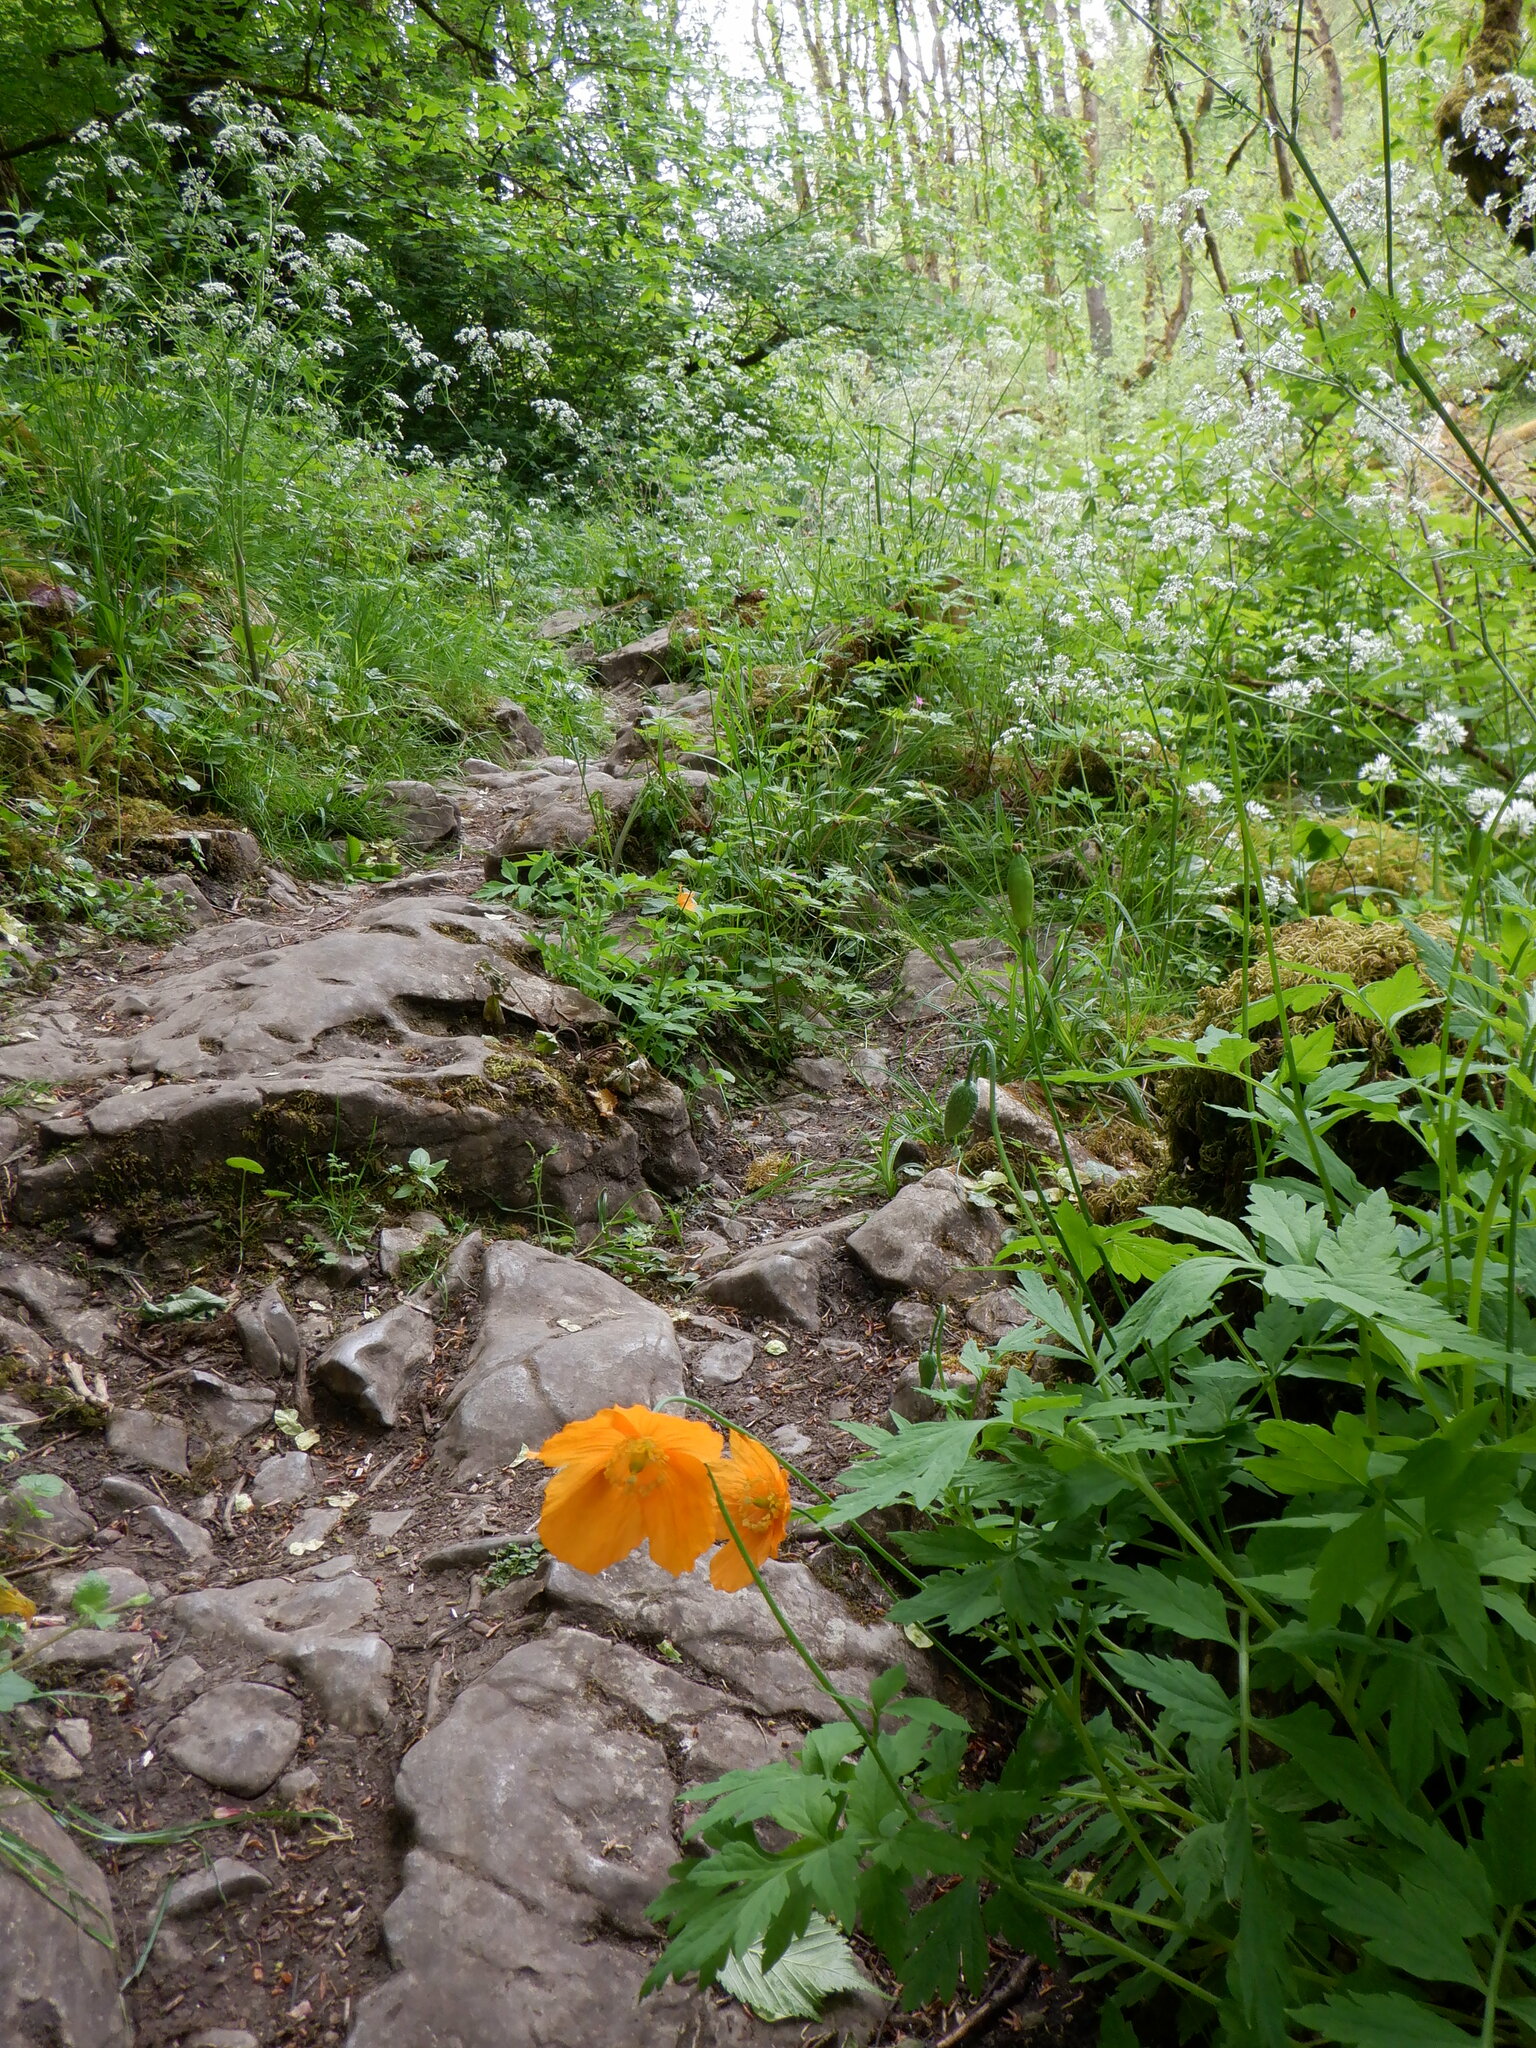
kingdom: Plantae
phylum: Tracheophyta
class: Magnoliopsida
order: Ranunculales
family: Papaveraceae
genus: Papaver
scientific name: Papaver cambricum
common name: Poppy
